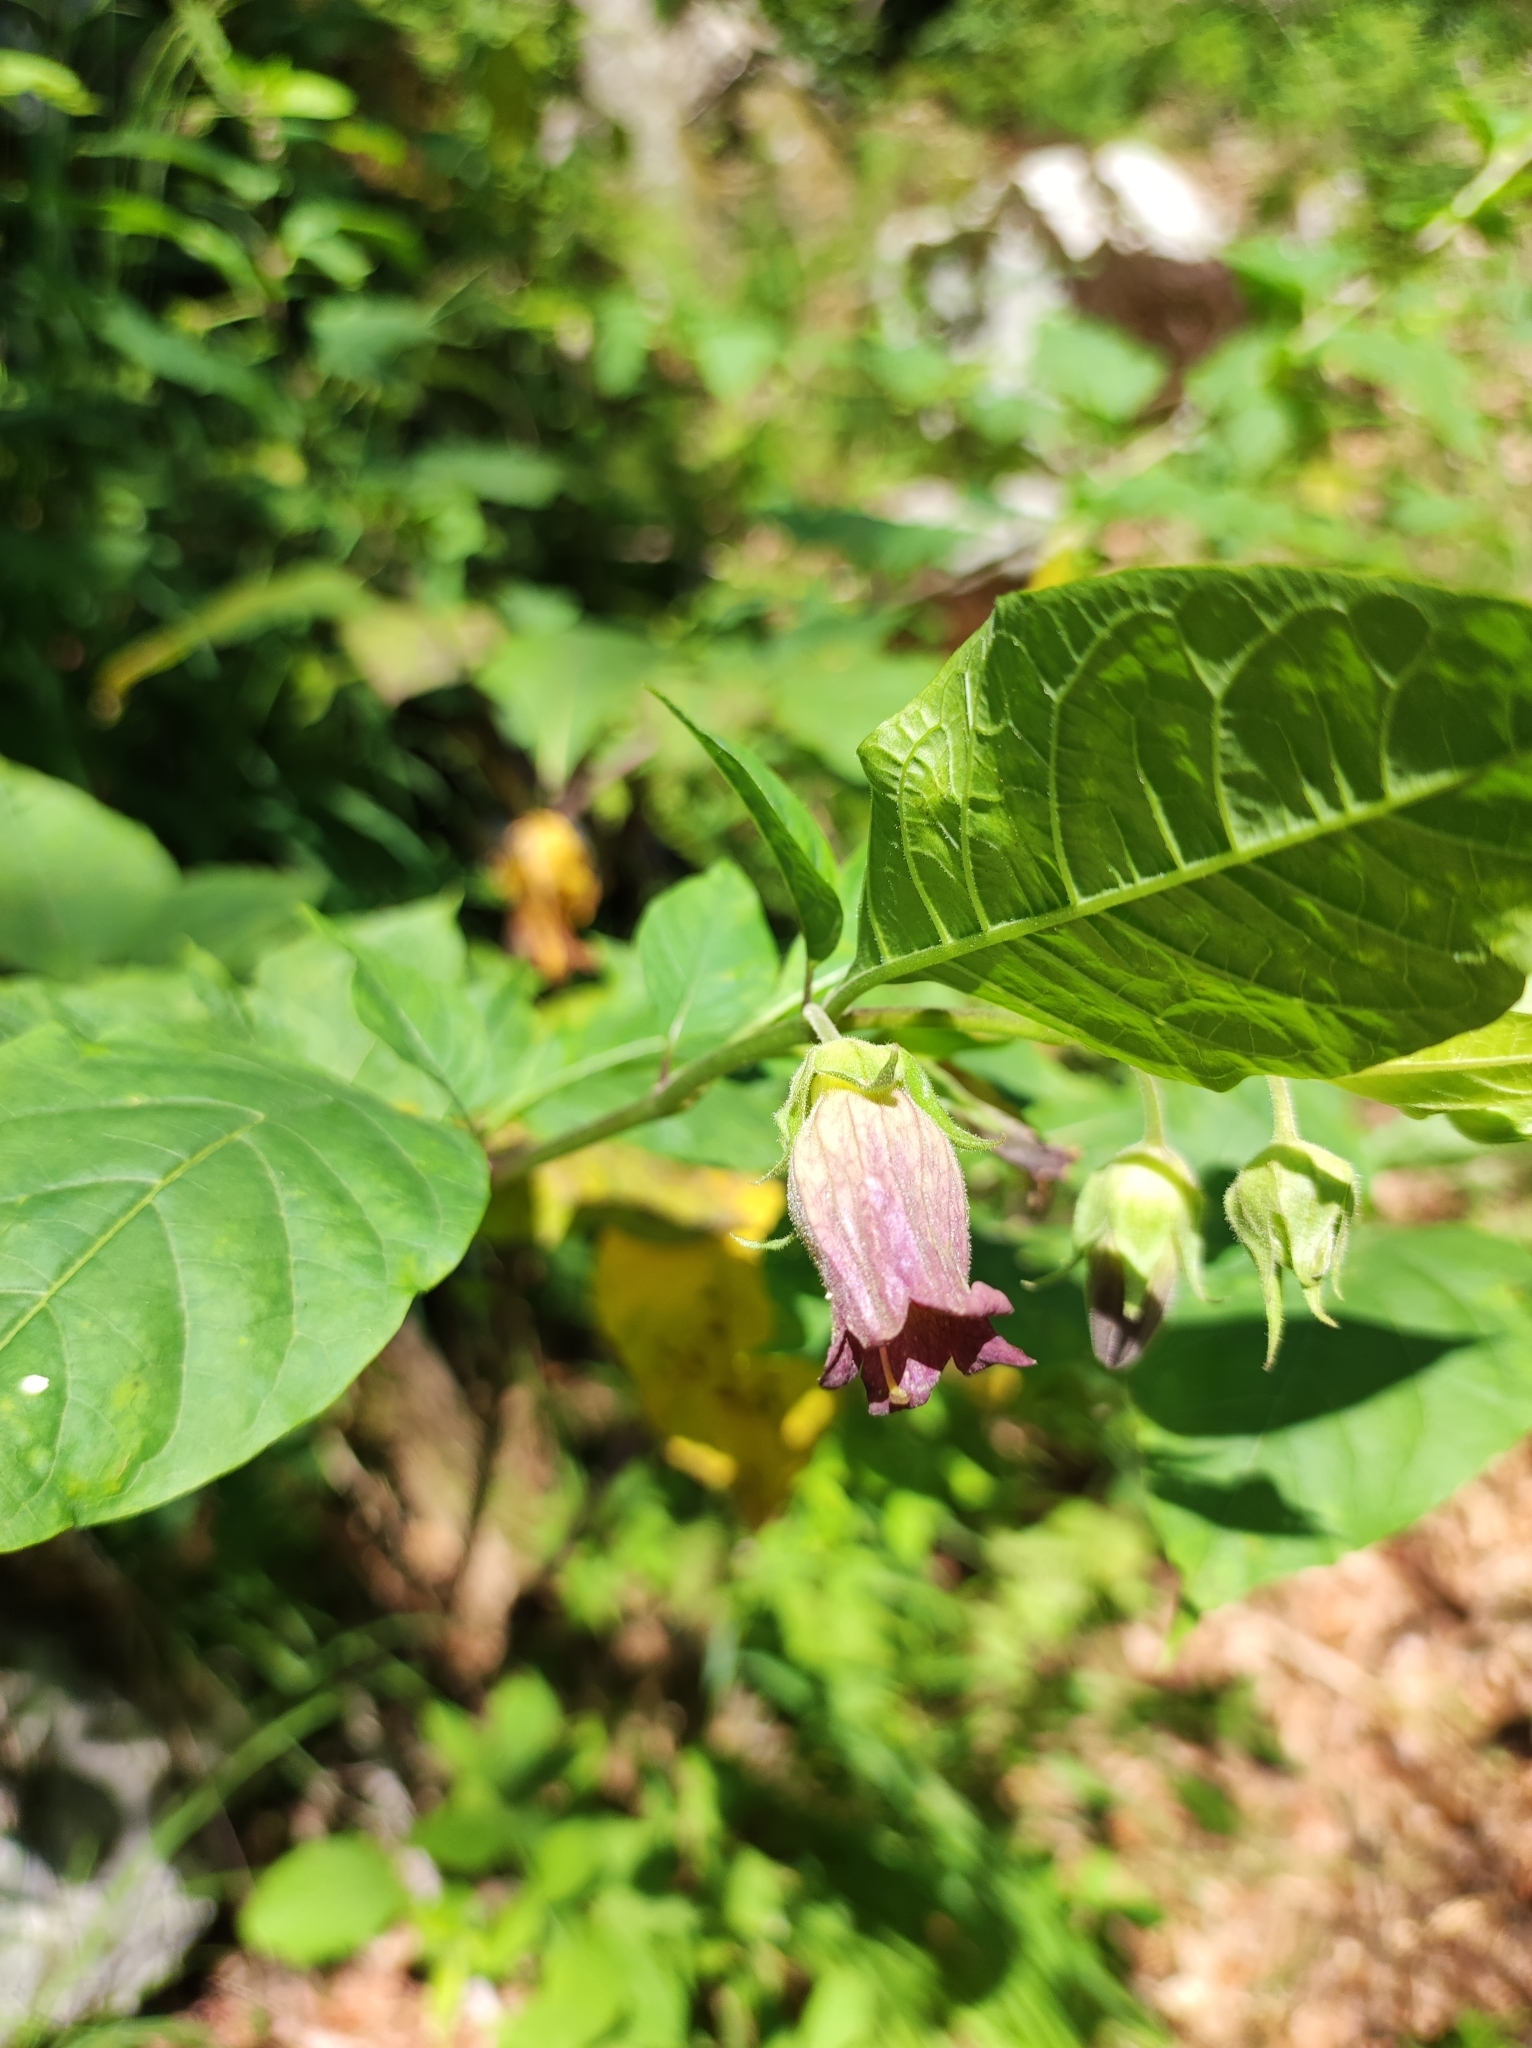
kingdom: Plantae
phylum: Tracheophyta
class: Magnoliopsida
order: Solanales
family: Solanaceae
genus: Atropa
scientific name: Atropa belladonna
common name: Deadly nightshade
